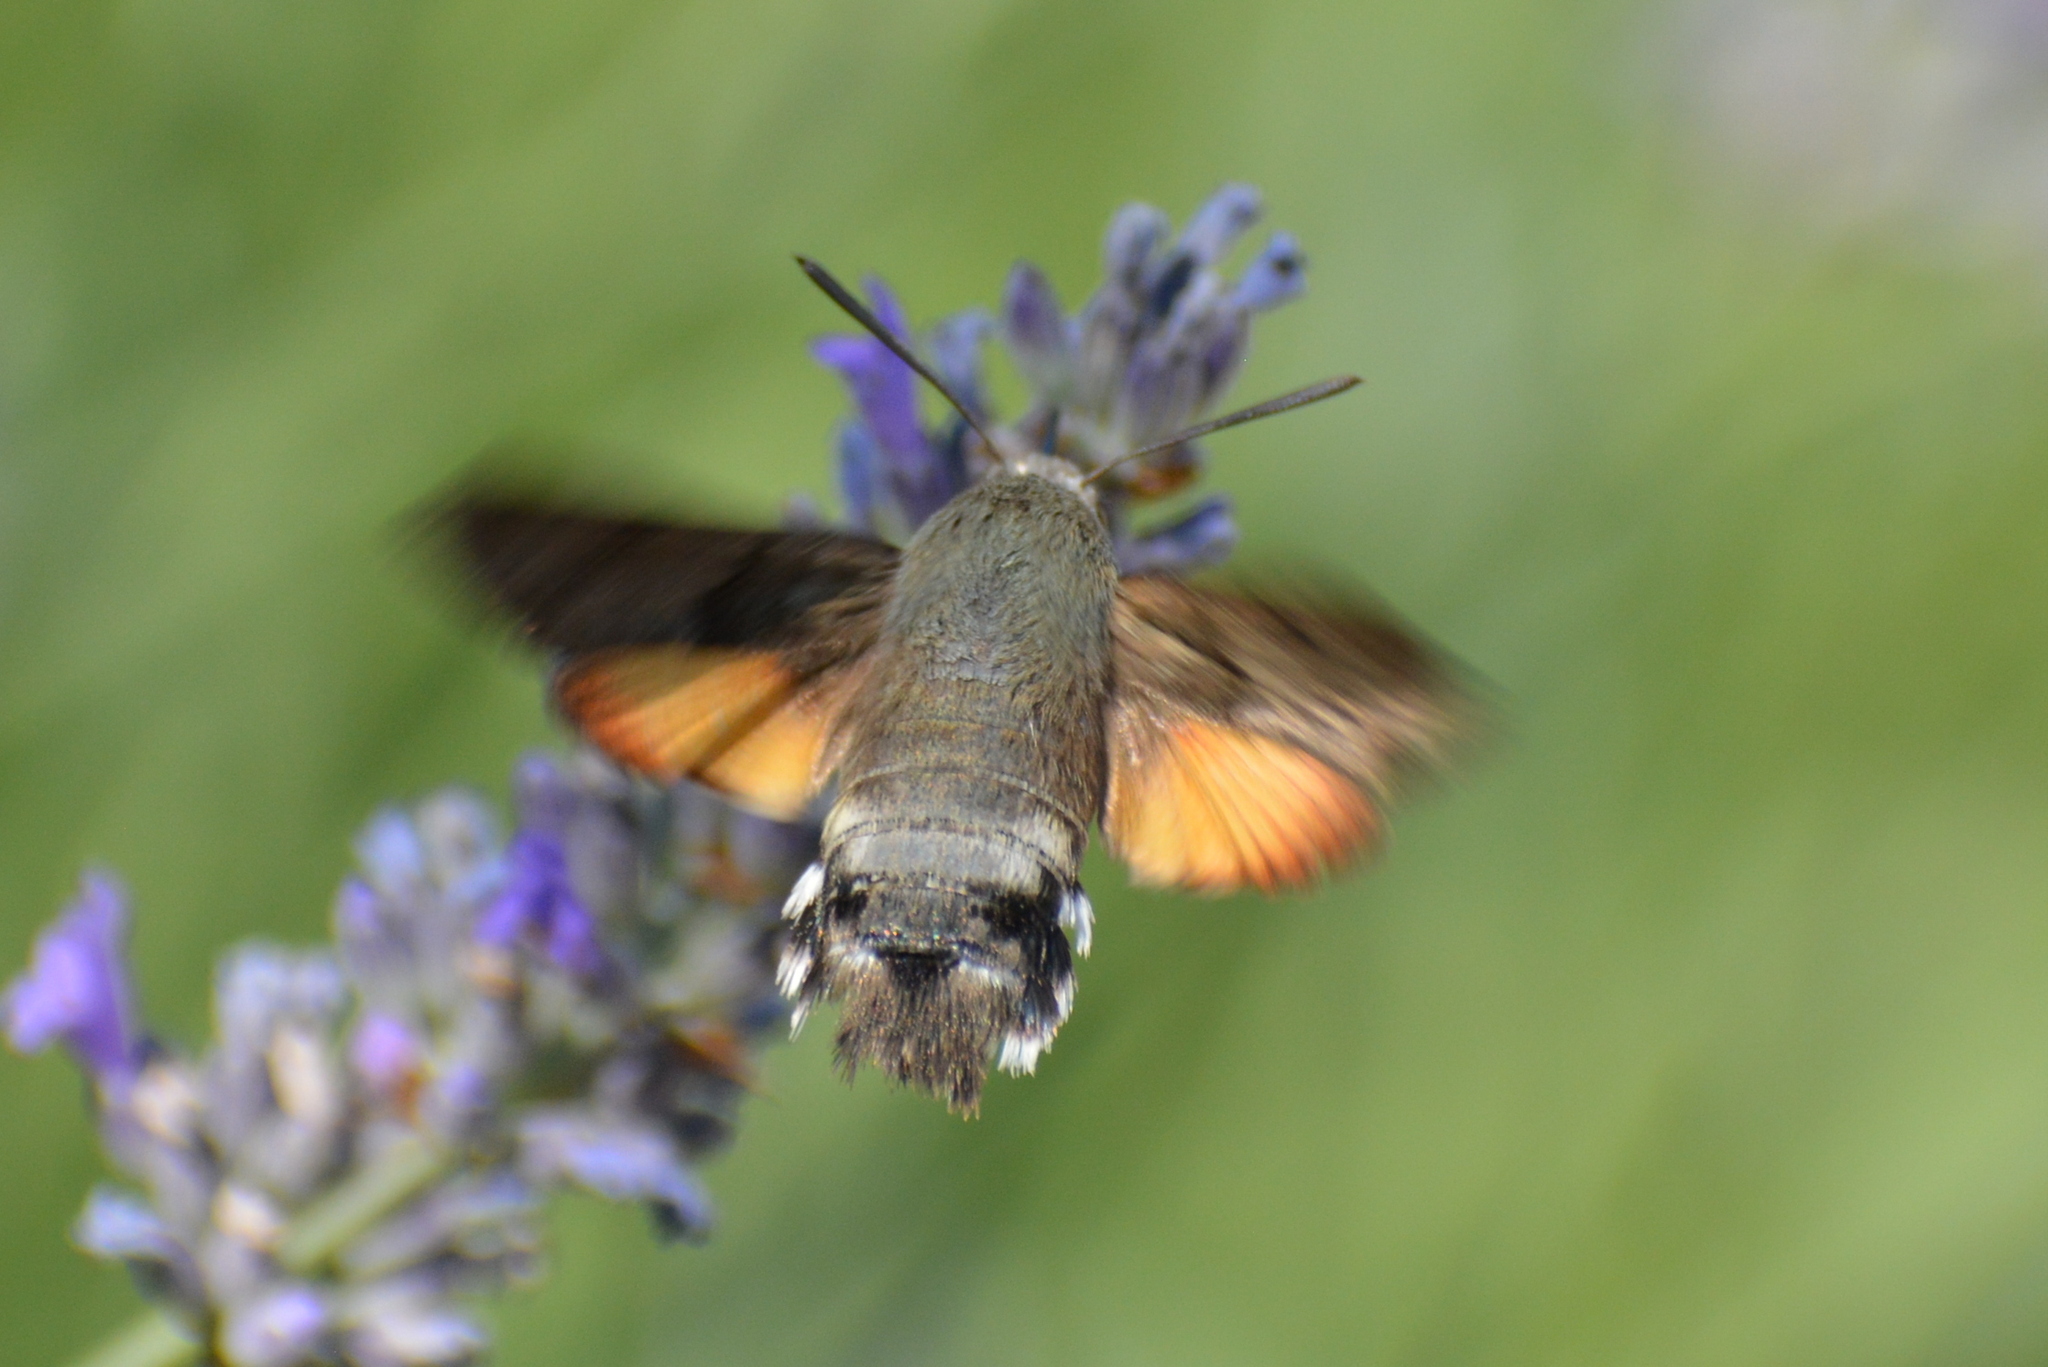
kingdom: Animalia
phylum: Arthropoda
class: Insecta
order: Lepidoptera
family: Sphingidae
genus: Macroglossum
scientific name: Macroglossum stellatarum
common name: Humming-bird hawk-moth
